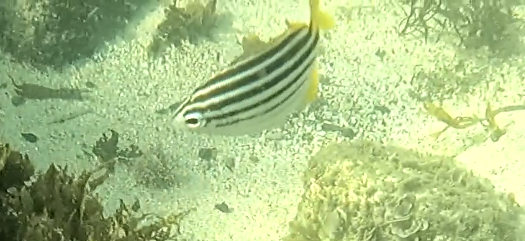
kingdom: Animalia
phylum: Chordata
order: Perciformes
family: Kyphosidae
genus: Atypichthys
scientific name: Atypichthys strigatus
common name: Australian mado
